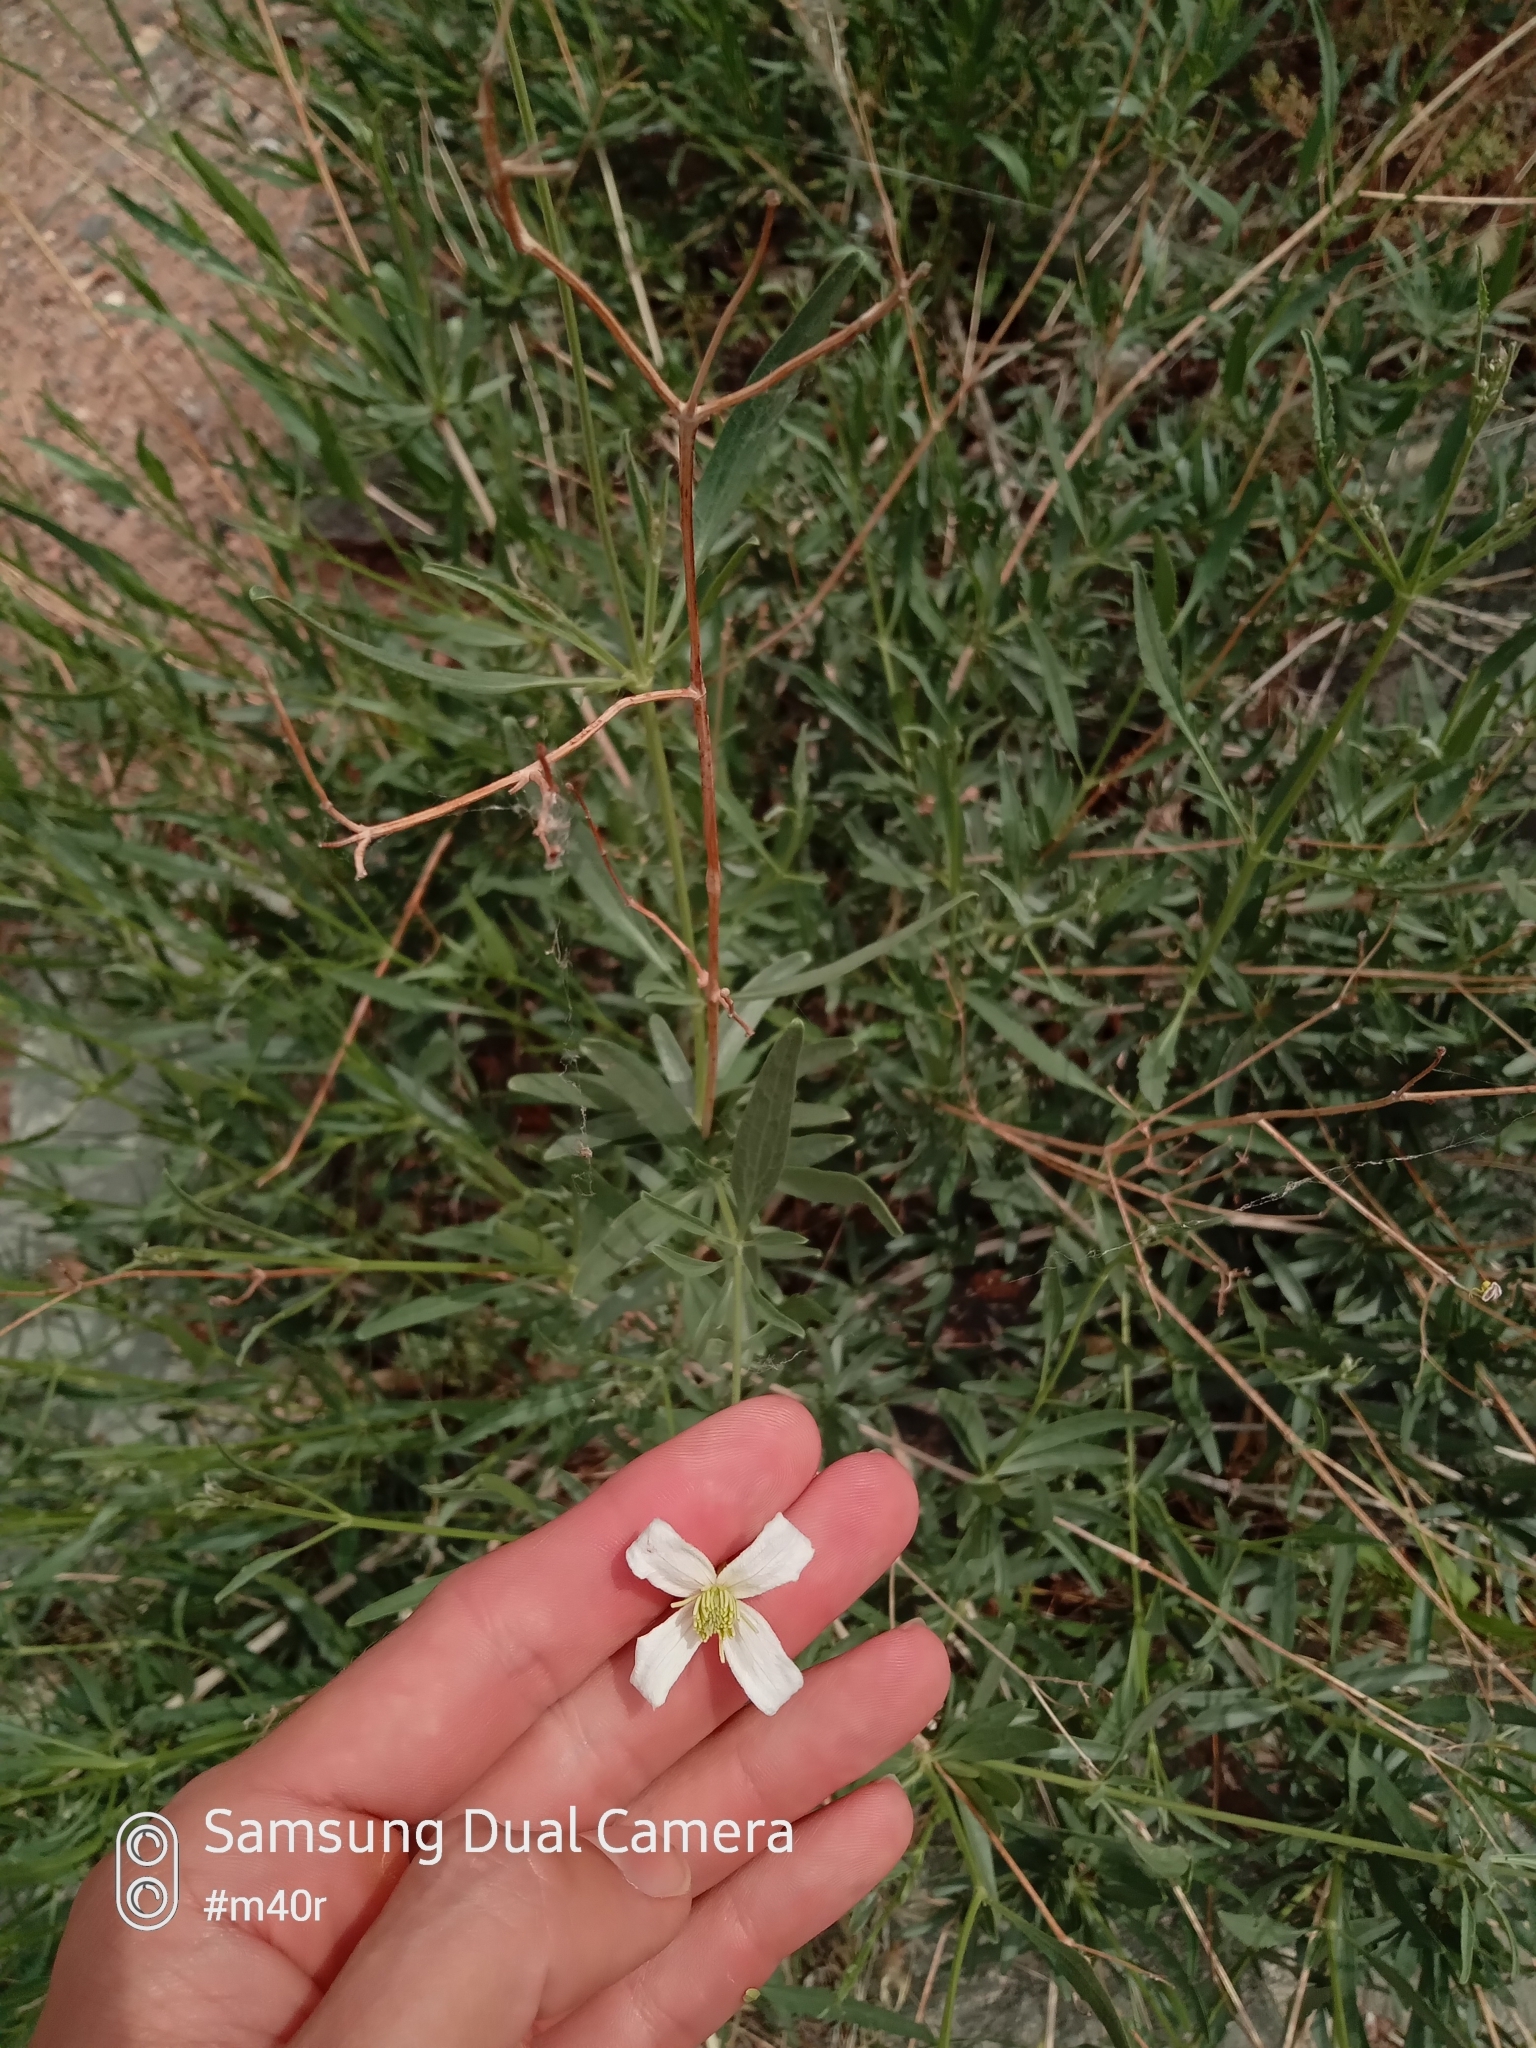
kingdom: Plantae
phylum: Tracheophyta
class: Magnoliopsida
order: Ranunculales
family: Ranunculaceae
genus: Clematis
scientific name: Clematis songorica
